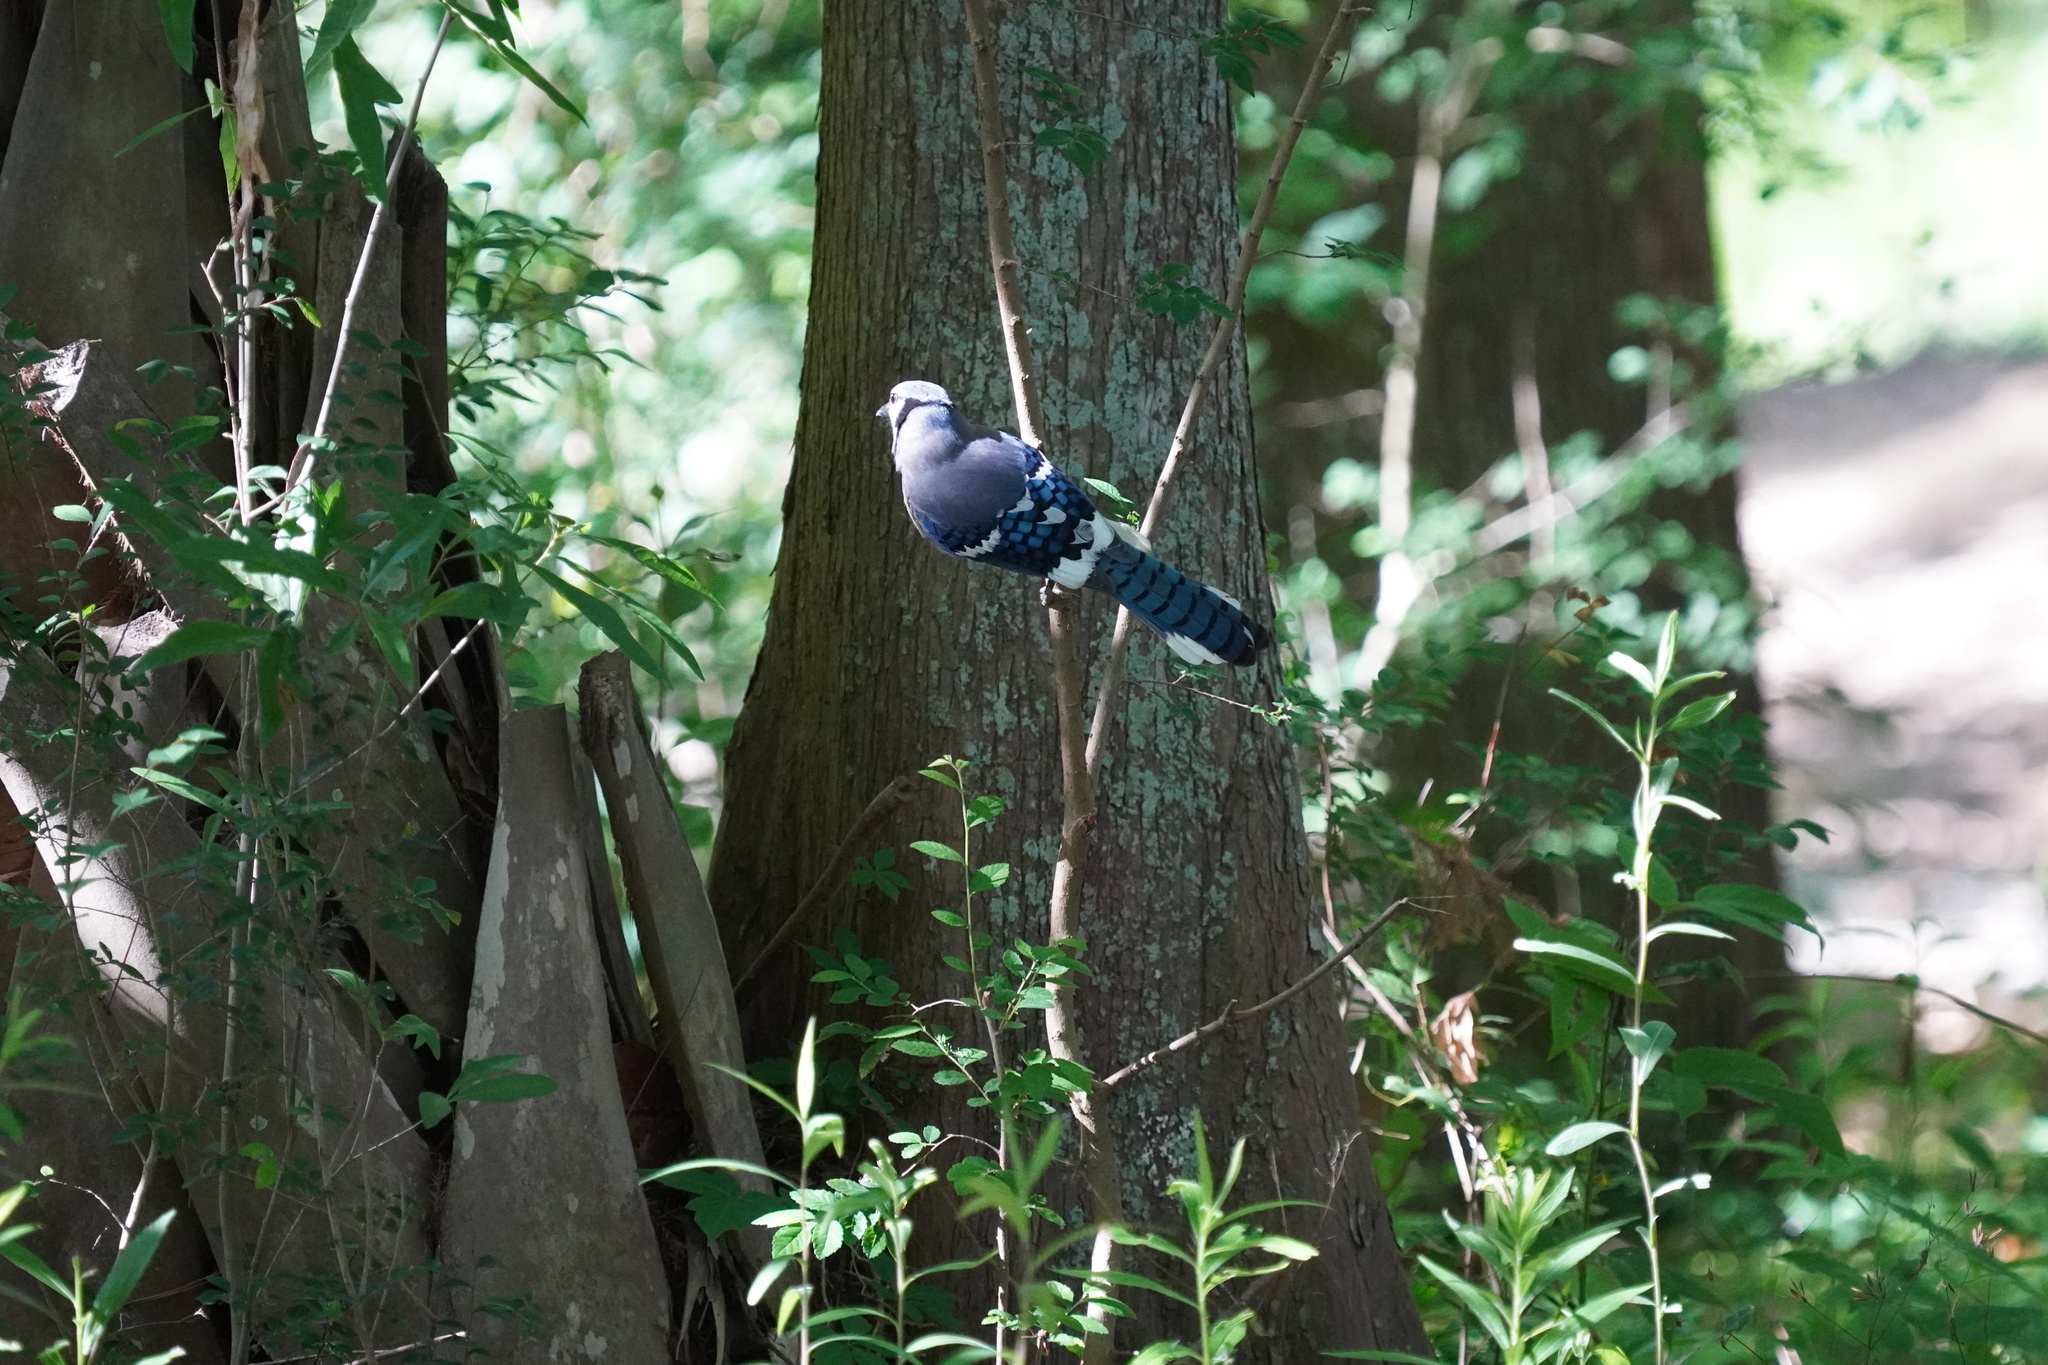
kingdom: Animalia
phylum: Chordata
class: Aves
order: Passeriformes
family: Corvidae
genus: Cyanocitta
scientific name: Cyanocitta cristata
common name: Blue jay
